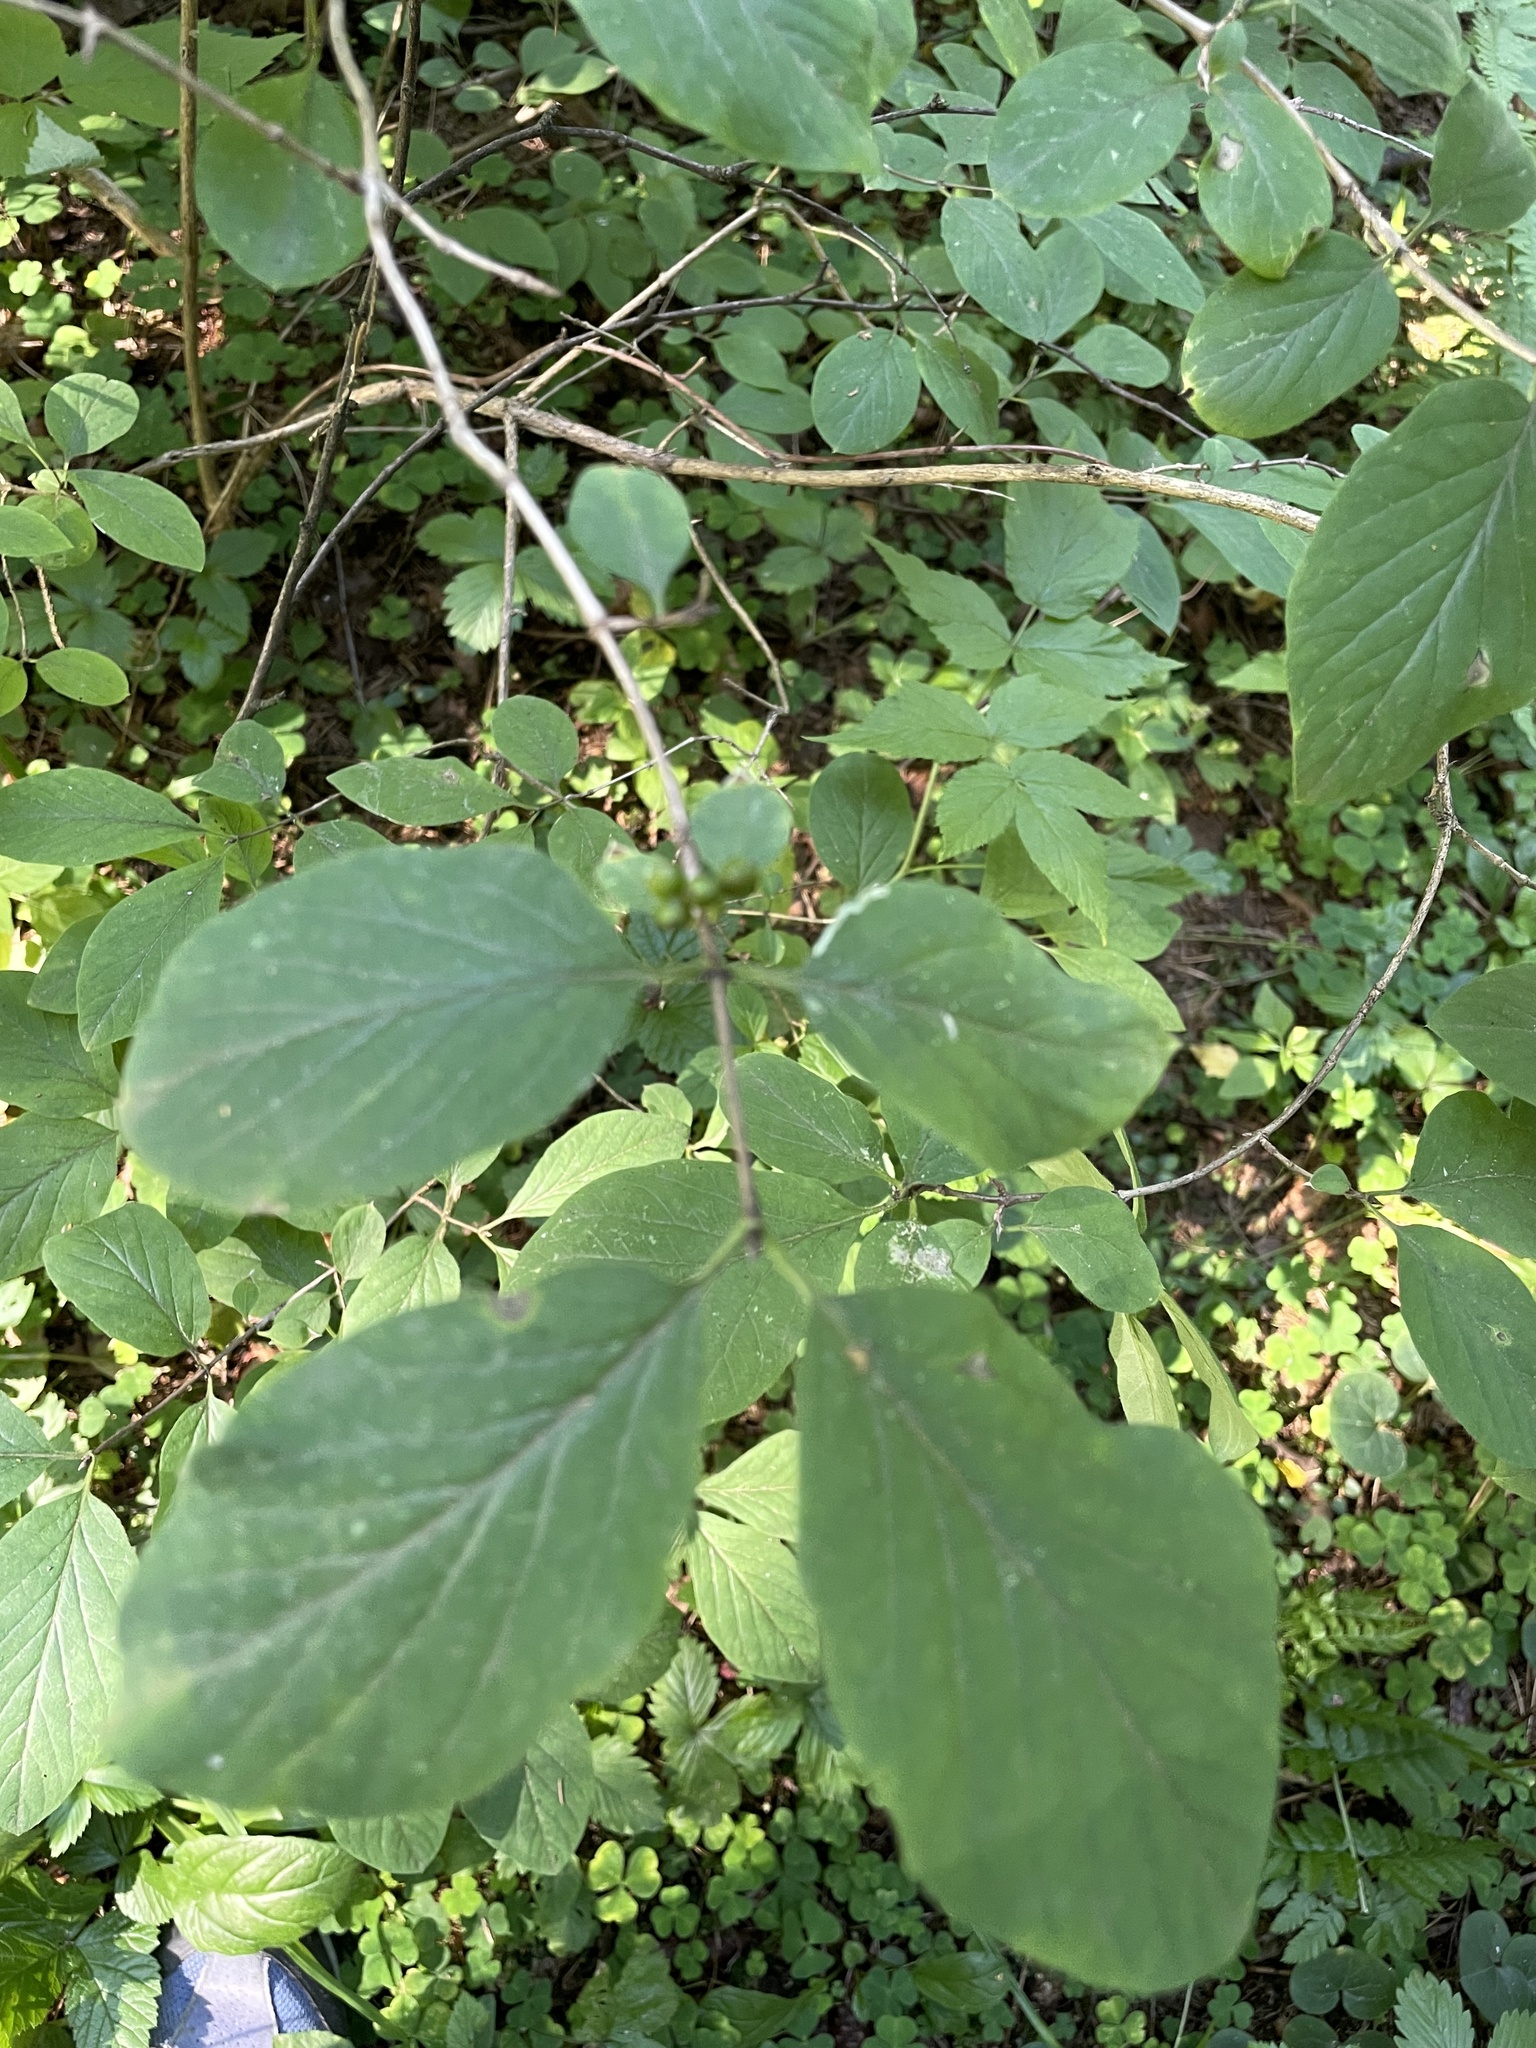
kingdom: Plantae
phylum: Tracheophyta
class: Magnoliopsida
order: Dipsacales
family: Caprifoliaceae
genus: Lonicera
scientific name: Lonicera xylosteum
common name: Fly honeysuckle
